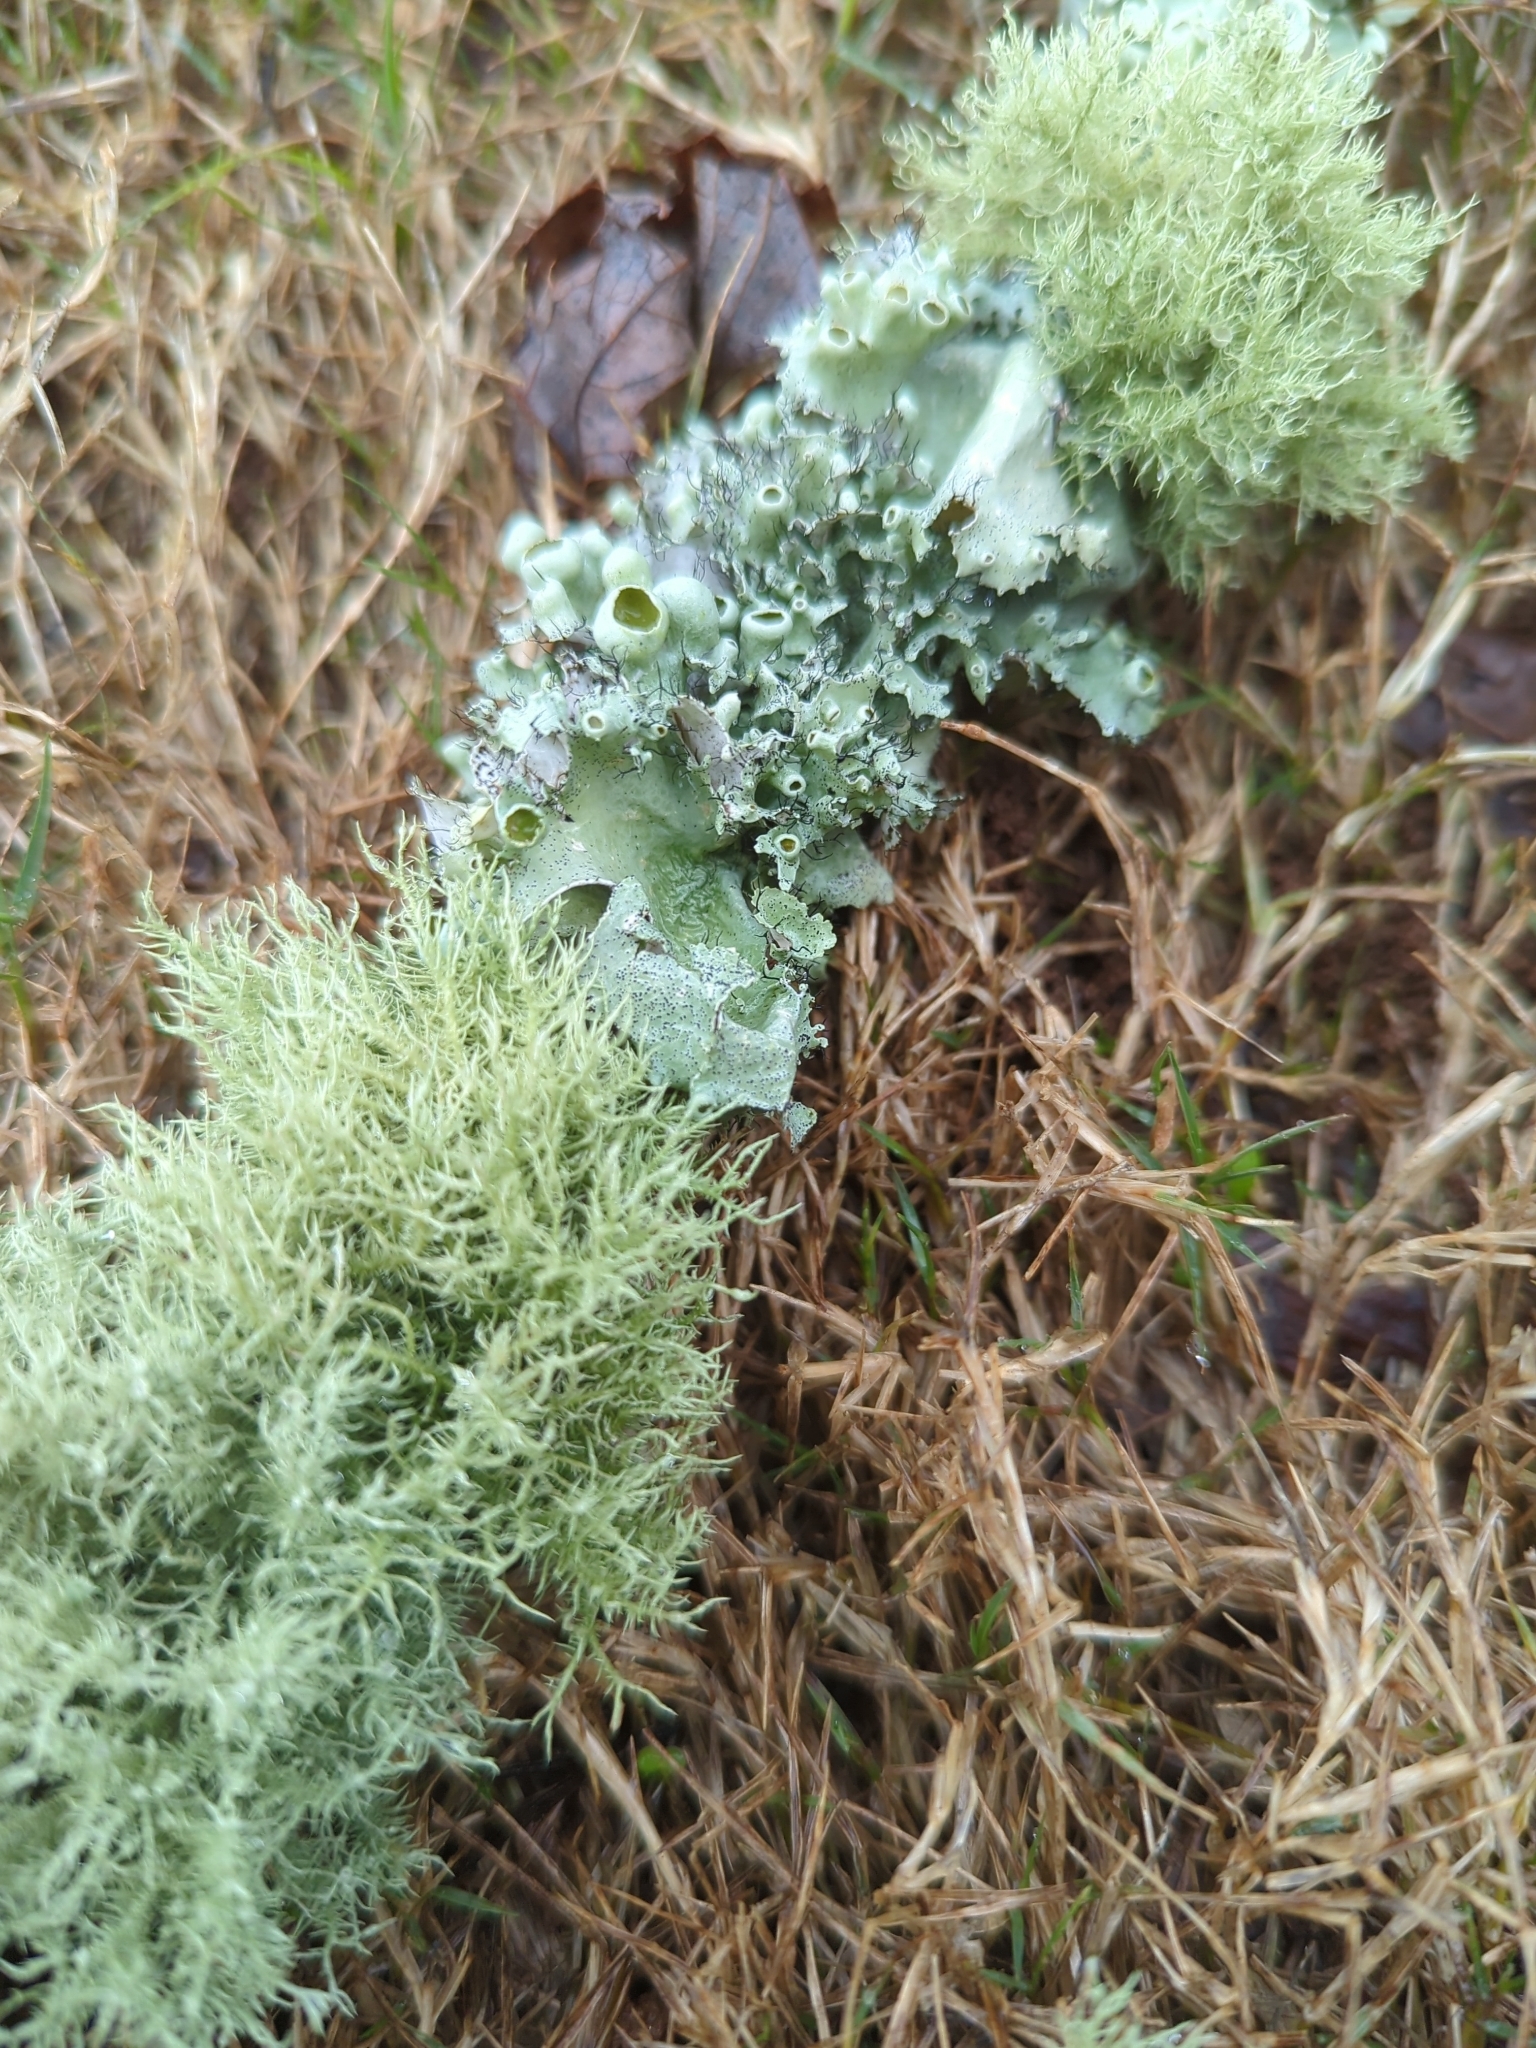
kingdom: Fungi
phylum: Ascomycota
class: Lecanoromycetes
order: Lecanorales
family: Parmeliaceae
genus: Parmotrema
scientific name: Parmotrema perforatum
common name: Perforated ruffle lichen
